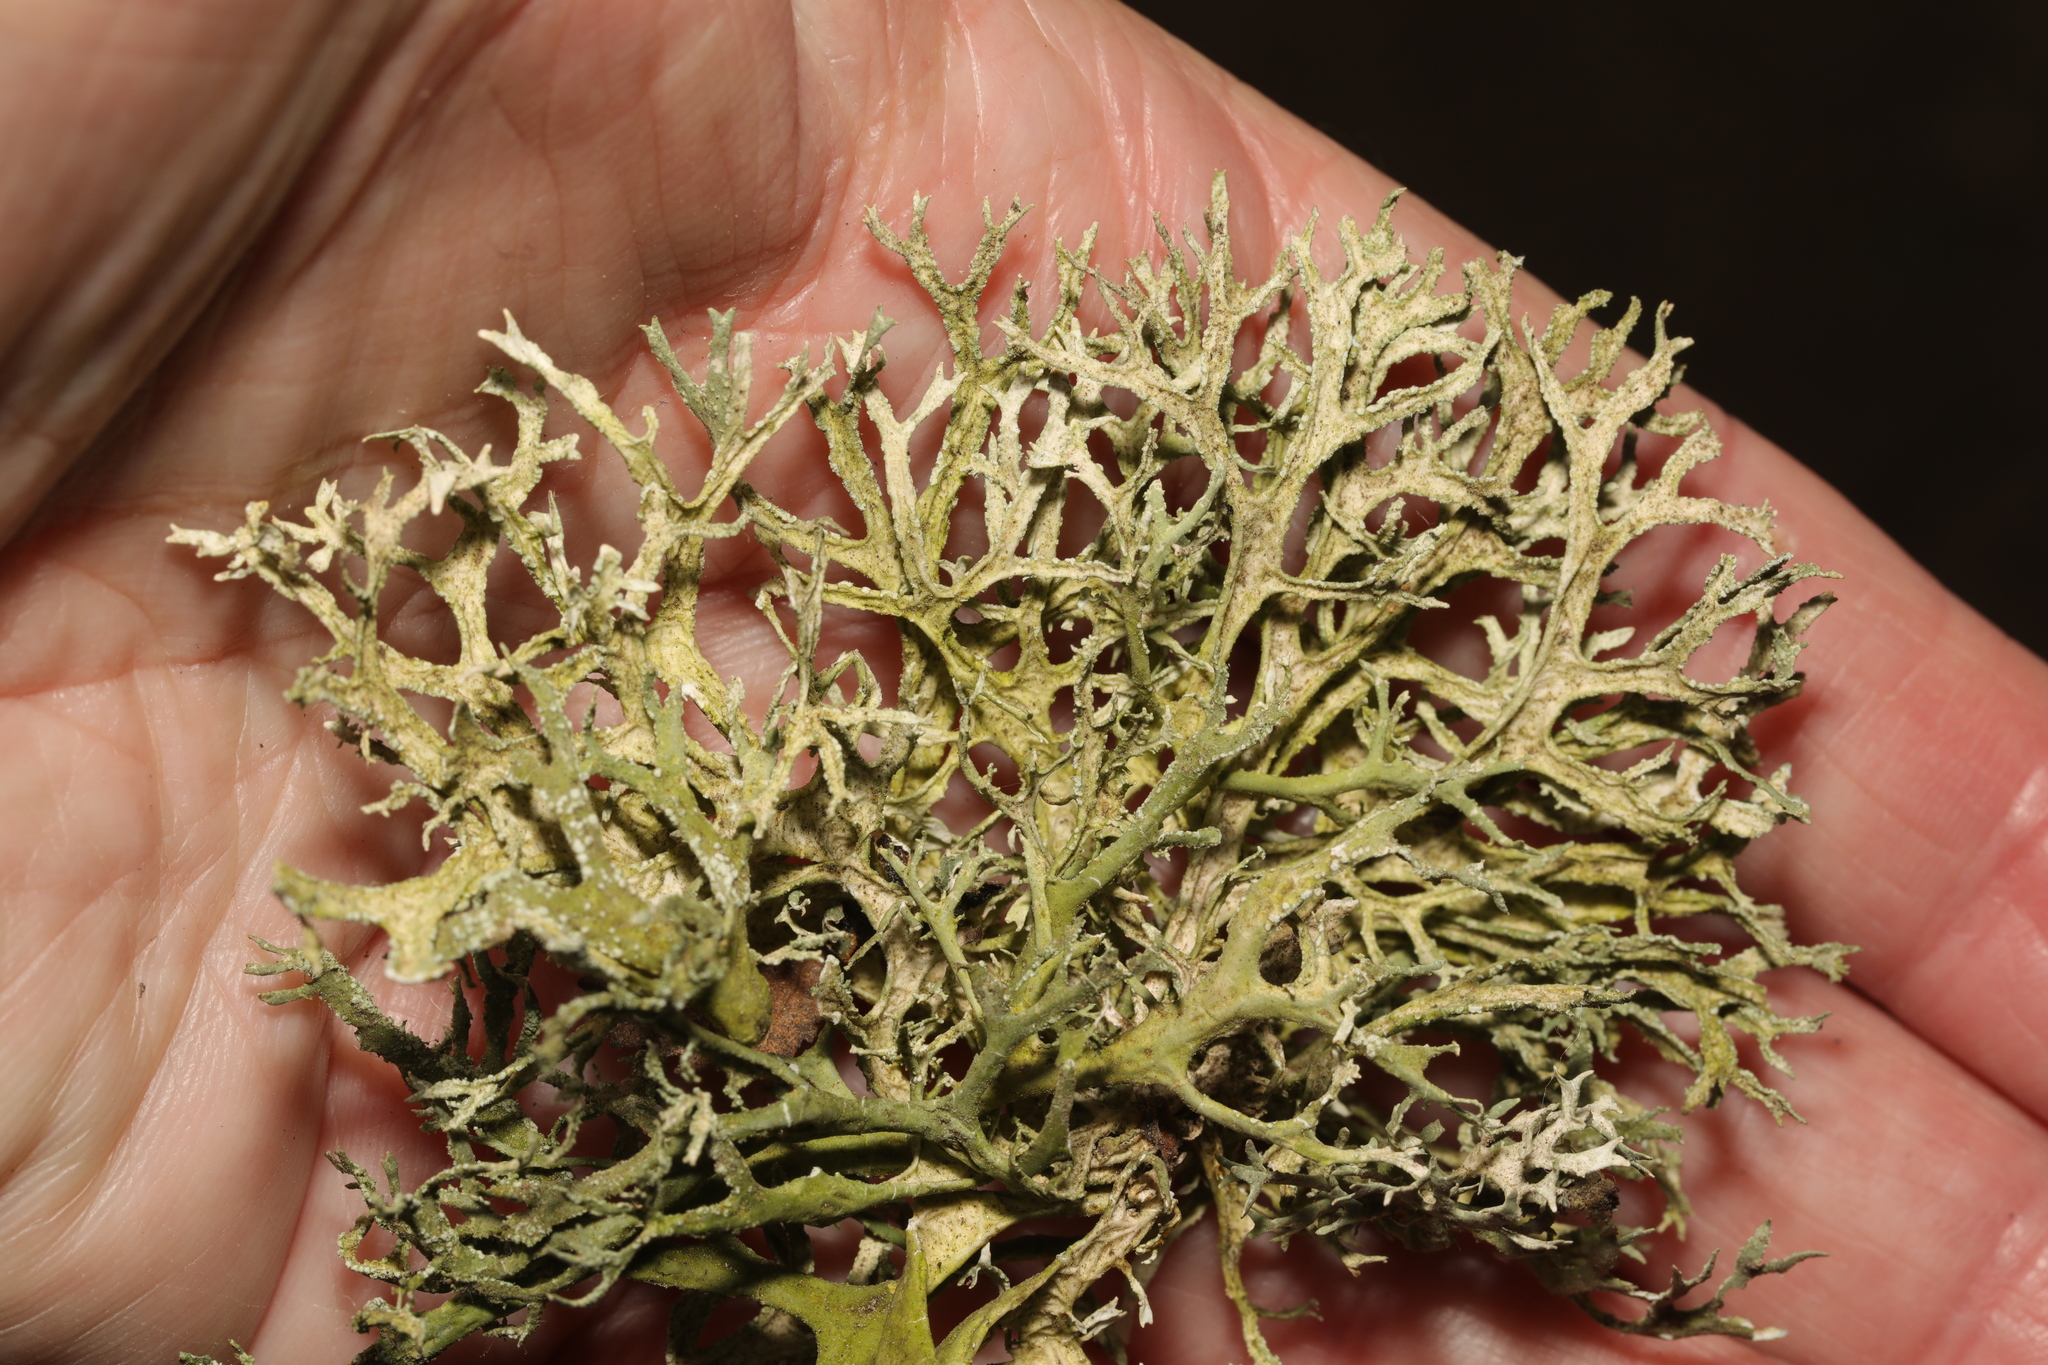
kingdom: Fungi
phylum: Ascomycota
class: Lecanoromycetes
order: Lecanorales
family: Parmeliaceae
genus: Evernia
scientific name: Evernia prunastri
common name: Oak moss
